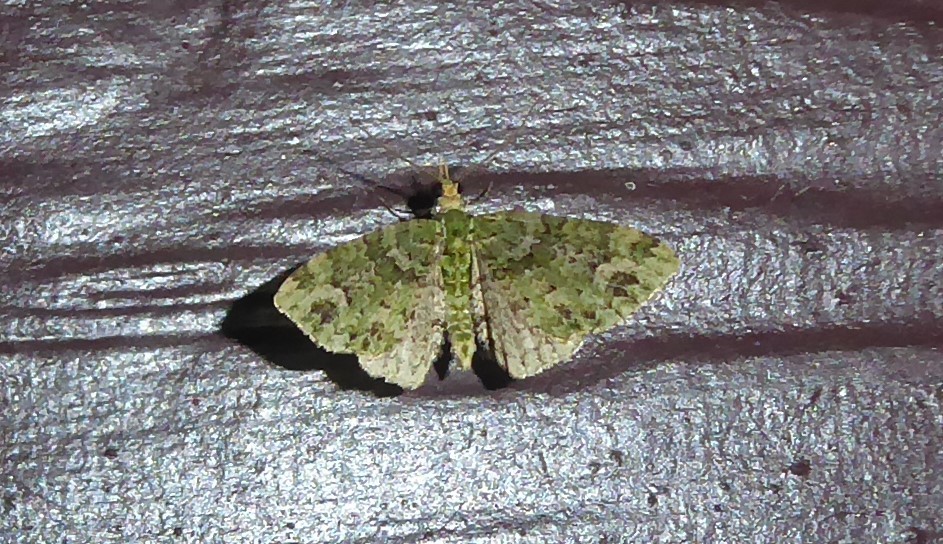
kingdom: Animalia
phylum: Arthropoda
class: Insecta
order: Lepidoptera
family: Geometridae
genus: Pasiphila
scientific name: Pasiphila muscosata
